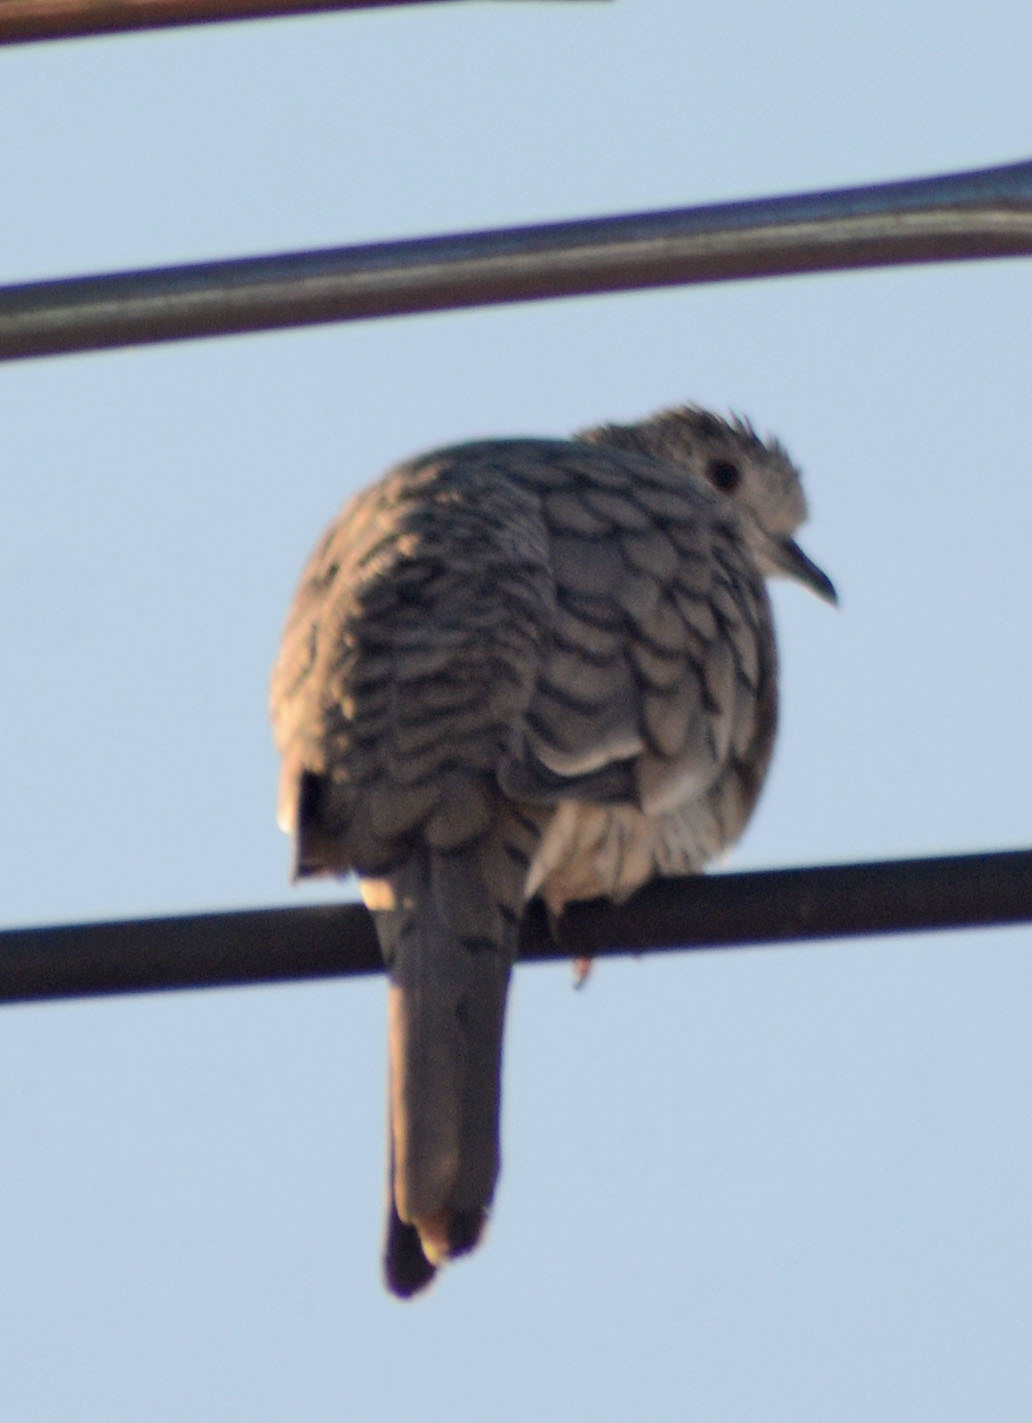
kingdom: Animalia
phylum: Chordata
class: Aves
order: Columbiformes
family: Columbidae
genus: Columbina
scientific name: Columbina inca
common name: Inca dove
